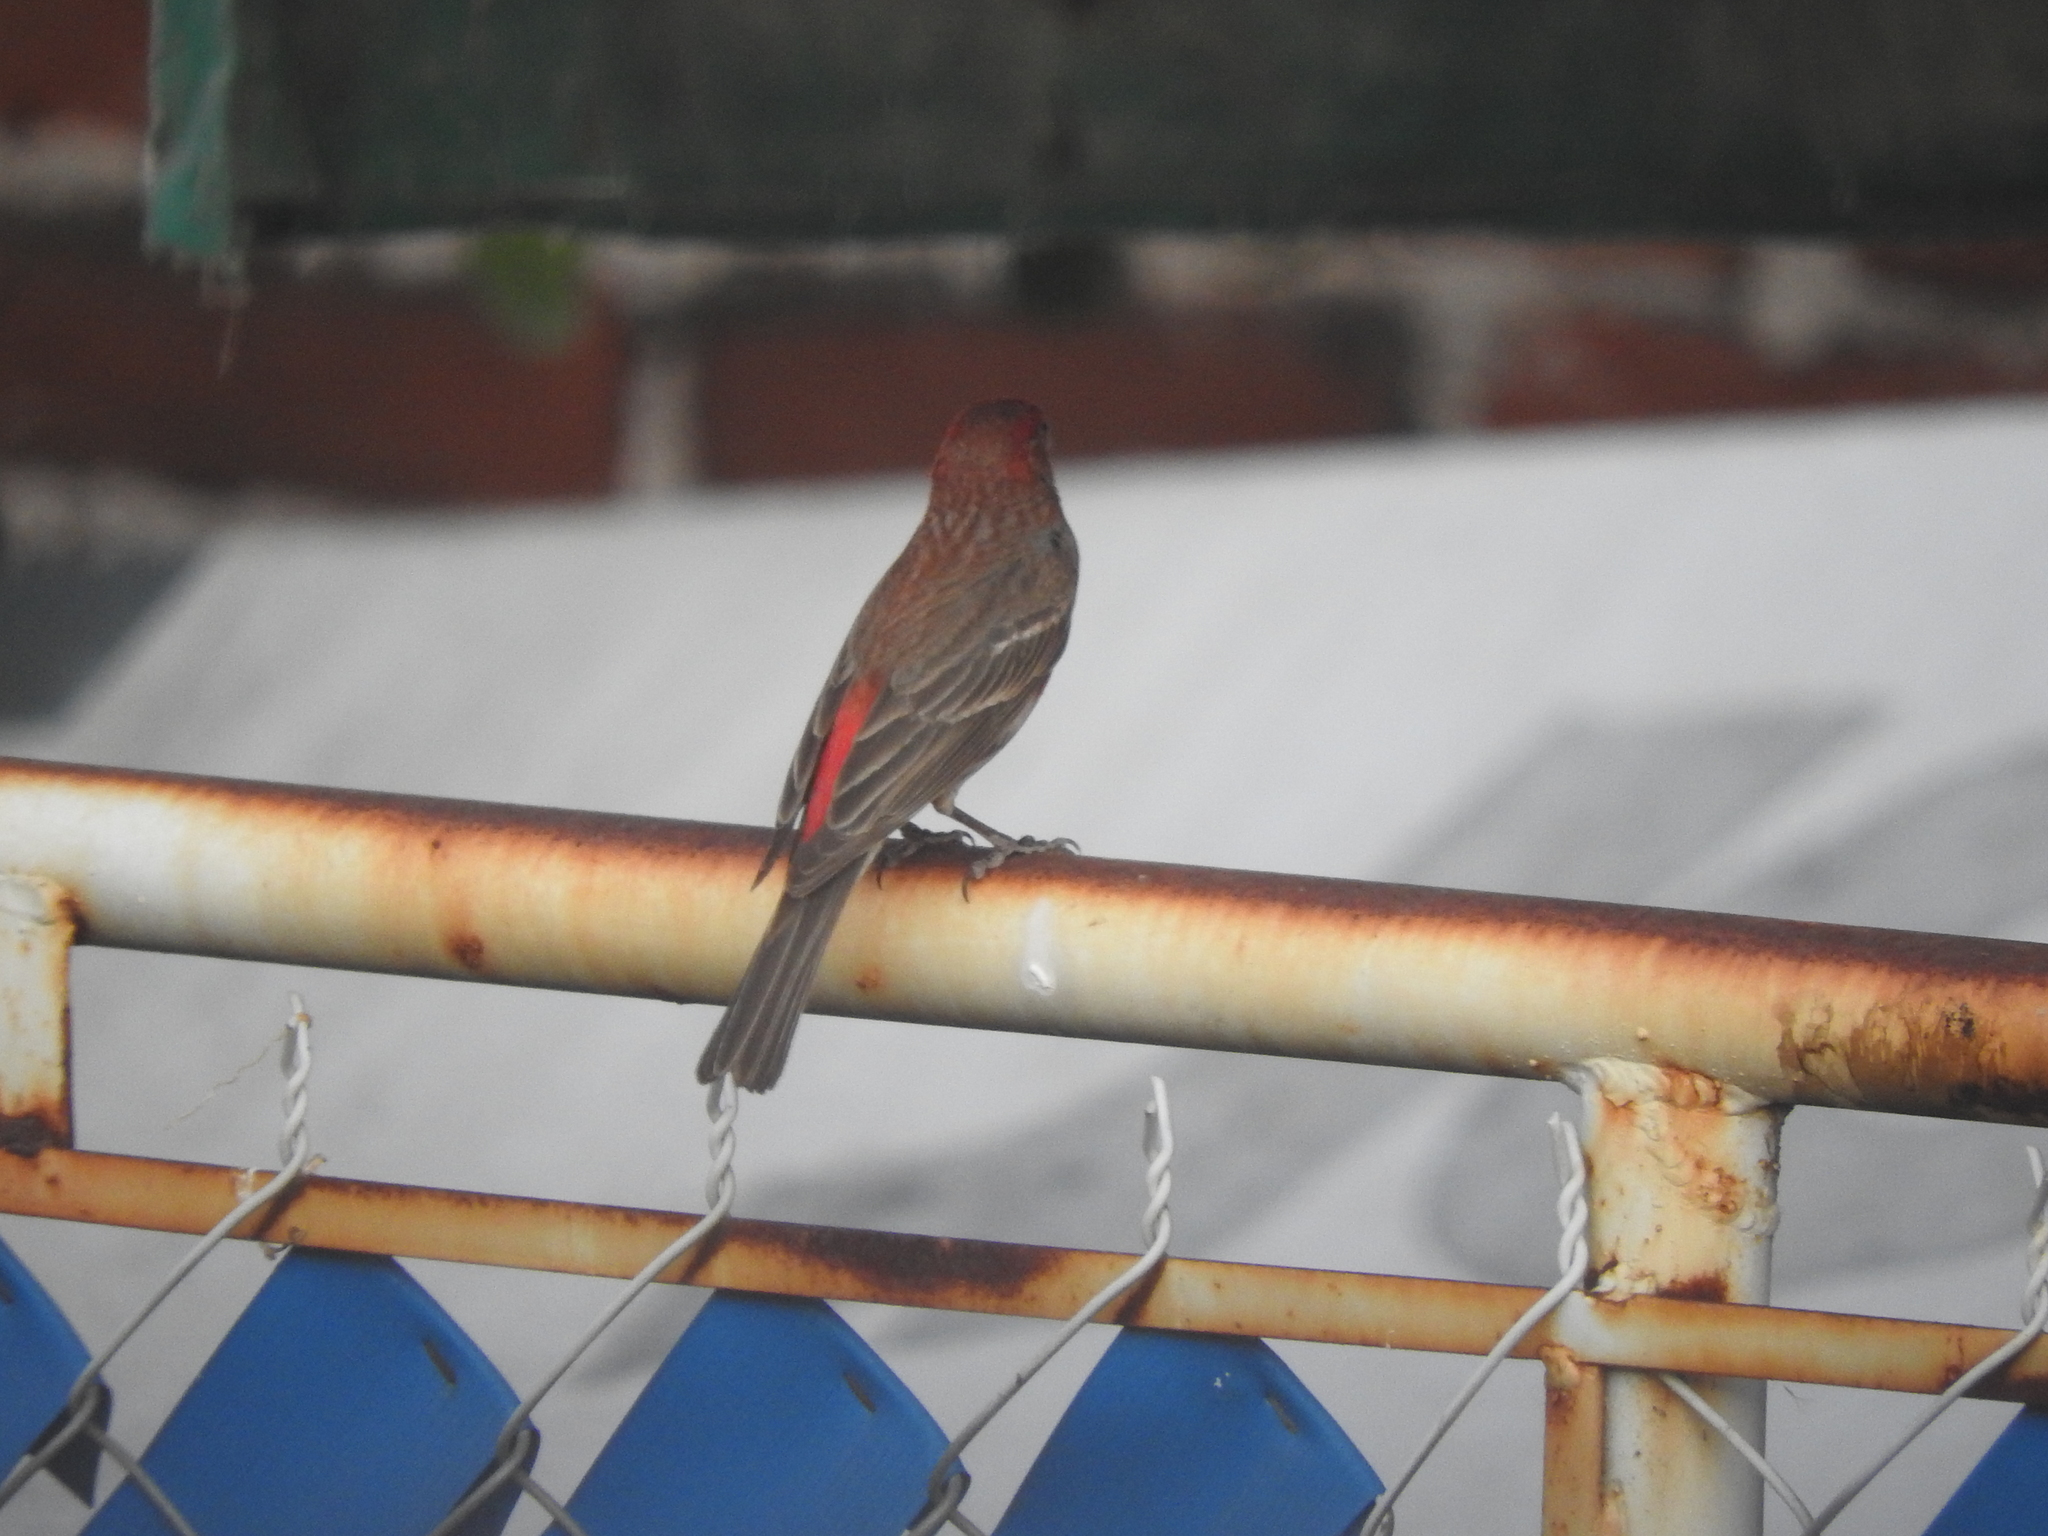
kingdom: Animalia
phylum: Chordata
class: Aves
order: Passeriformes
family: Fringillidae
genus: Haemorhous
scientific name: Haemorhous mexicanus
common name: House finch
